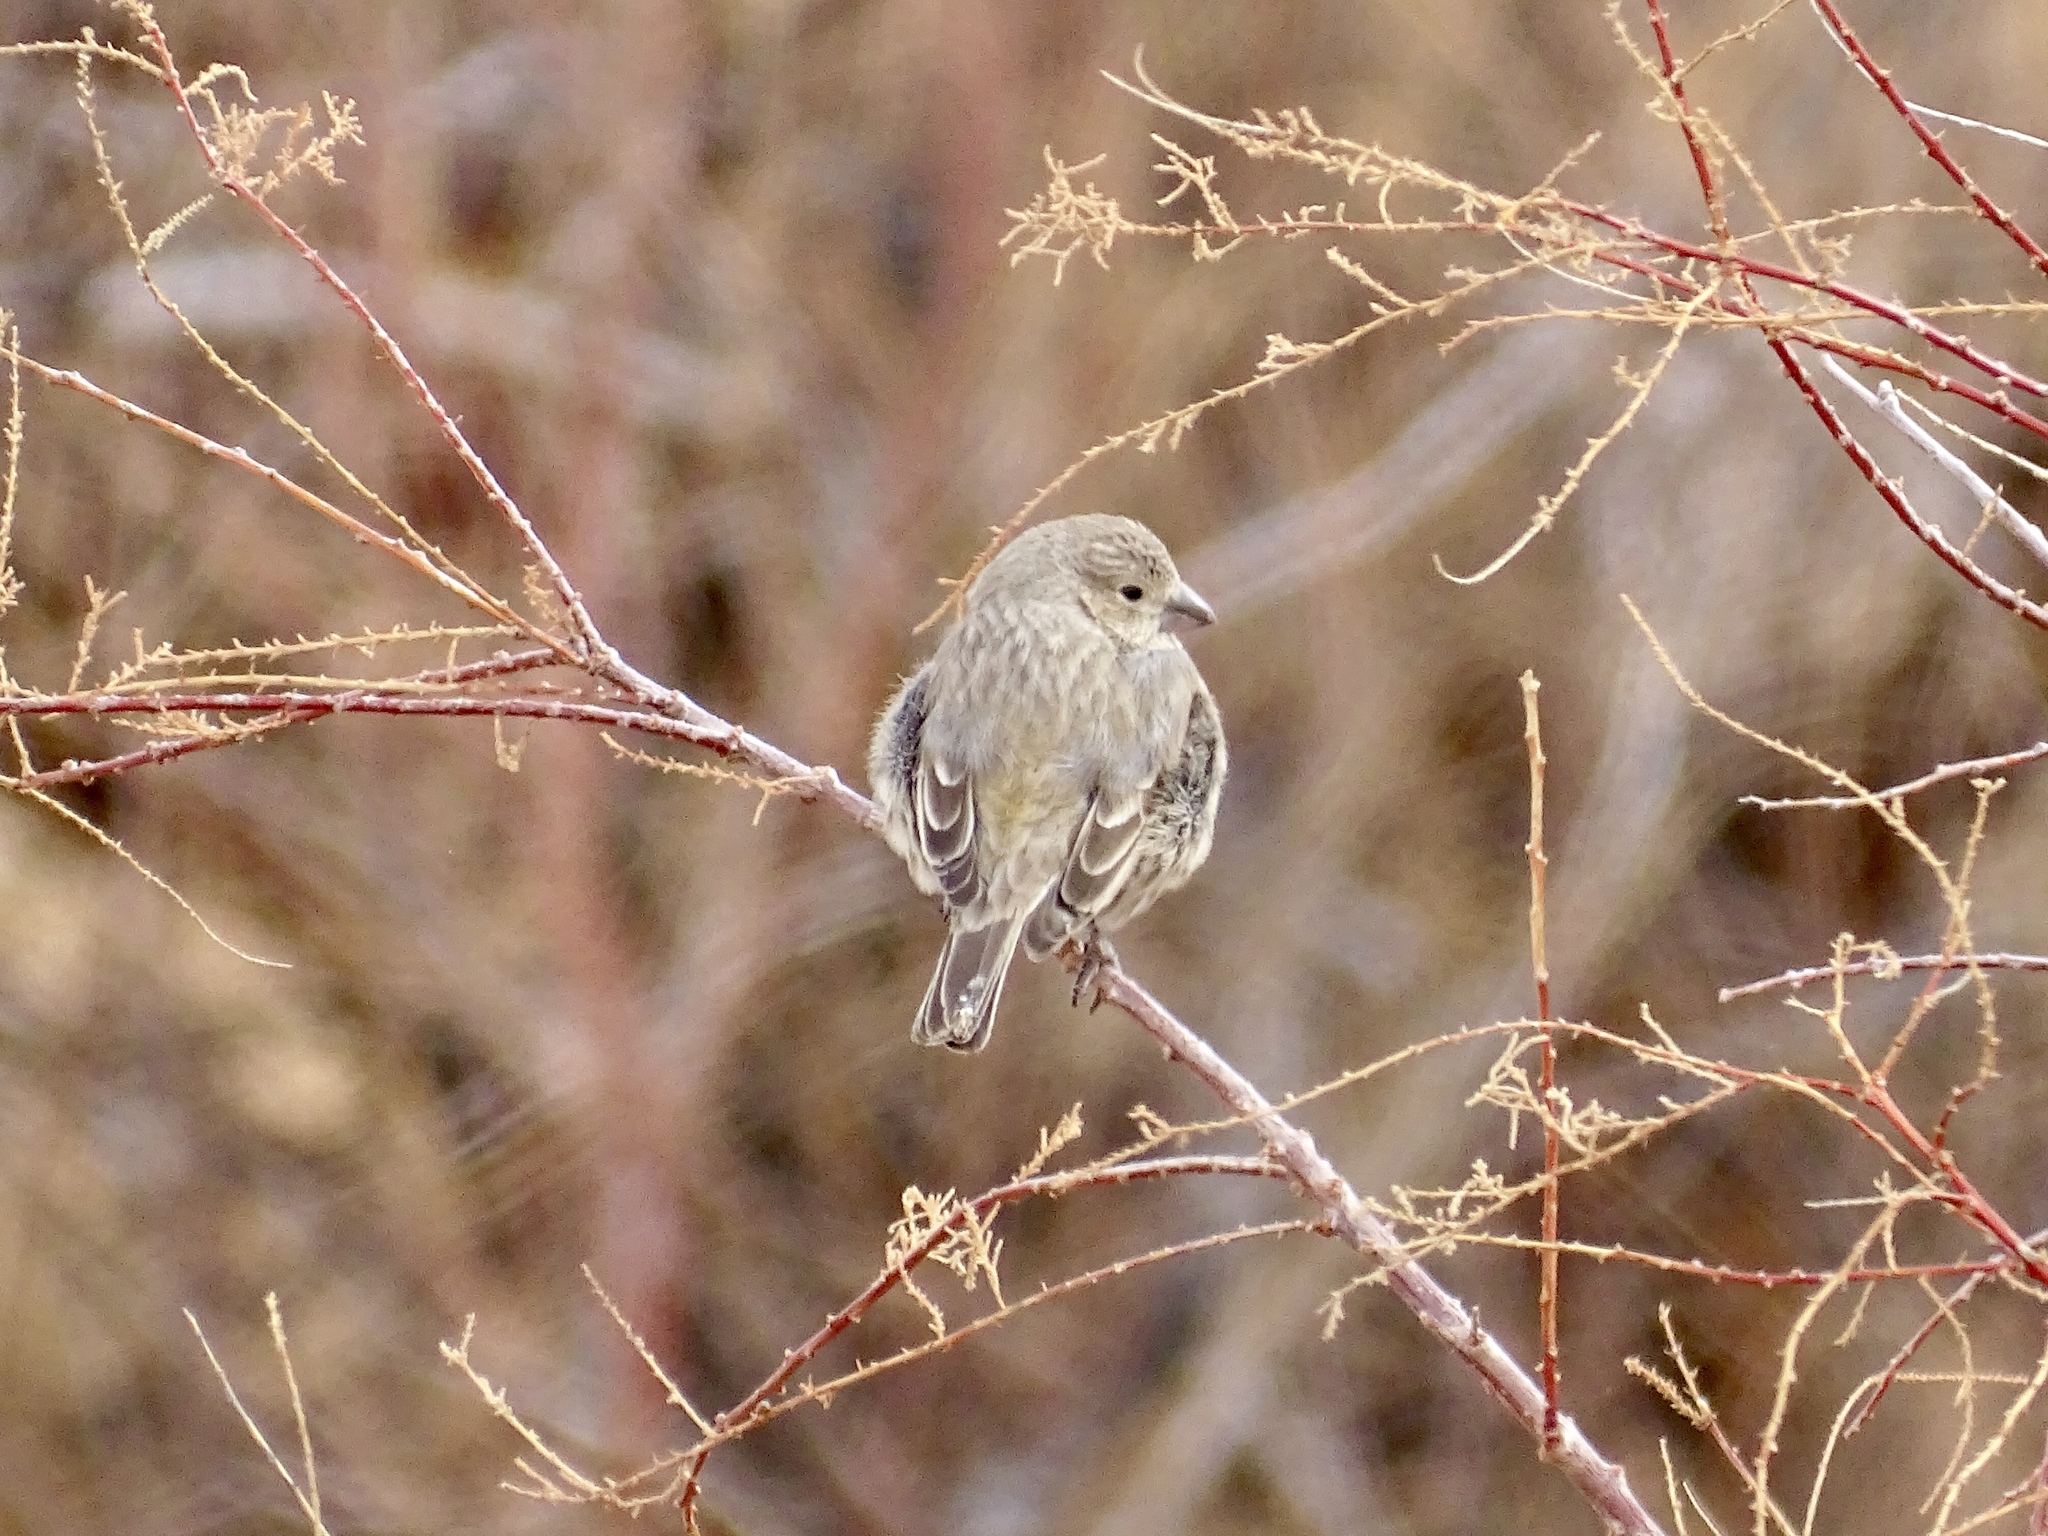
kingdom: Animalia
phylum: Chordata
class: Aves
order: Passeriformes
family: Fringillidae
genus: Haemorhous
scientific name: Haemorhous mexicanus
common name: House finch
